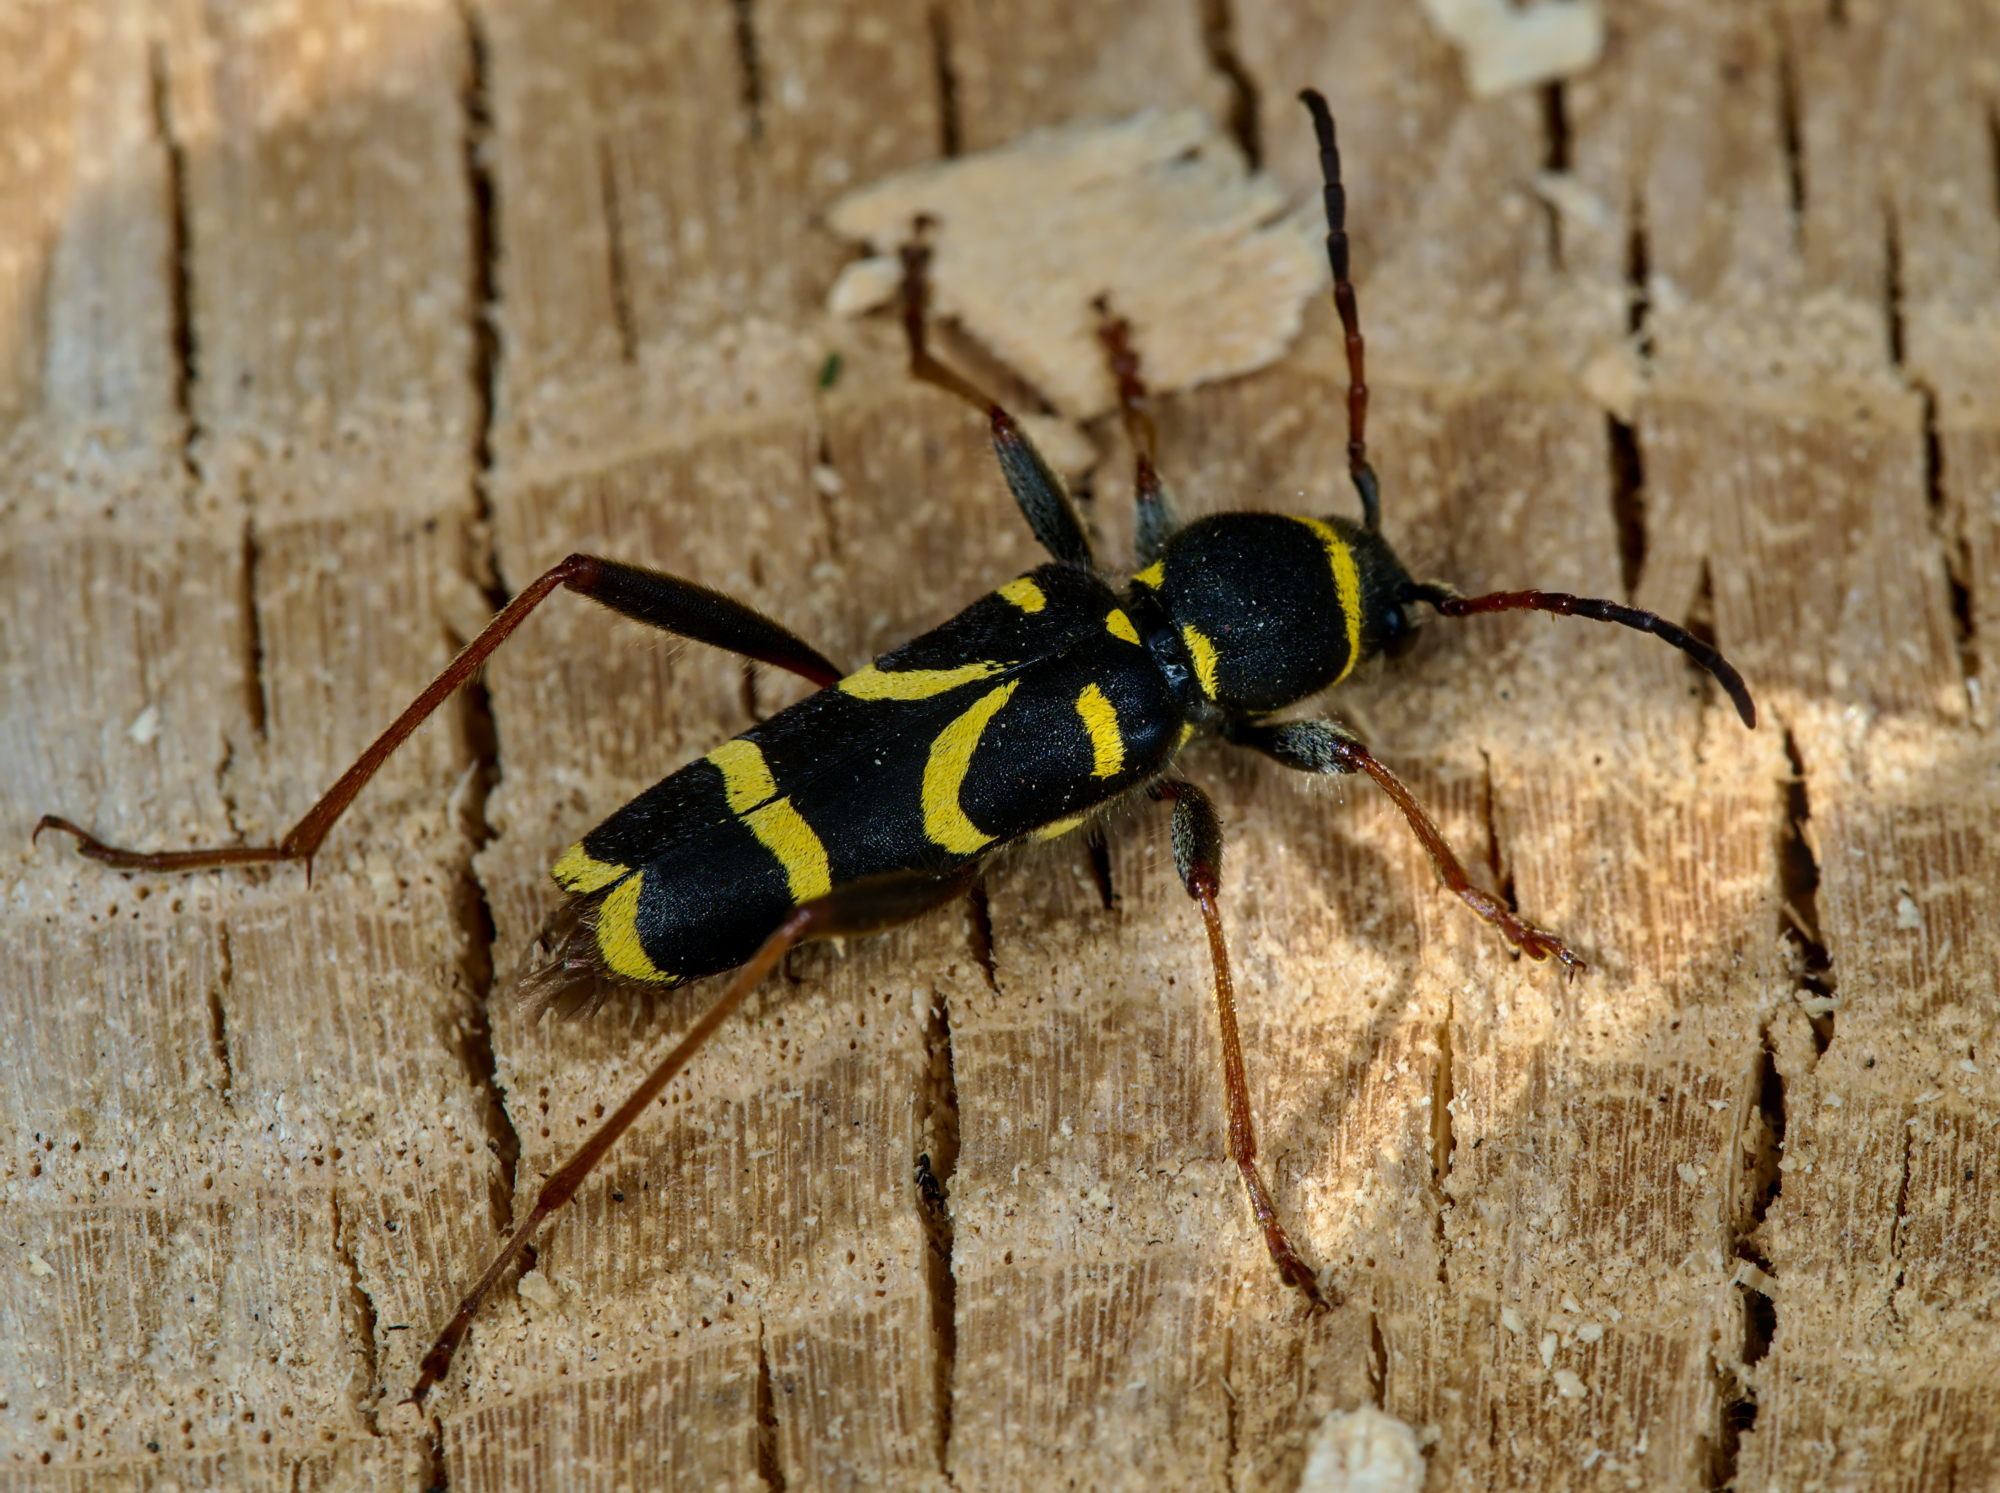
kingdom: Animalia
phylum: Arthropoda
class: Insecta
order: Coleoptera
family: Cerambycidae
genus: Clytus
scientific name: Clytus arietis
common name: Wasp beetle
